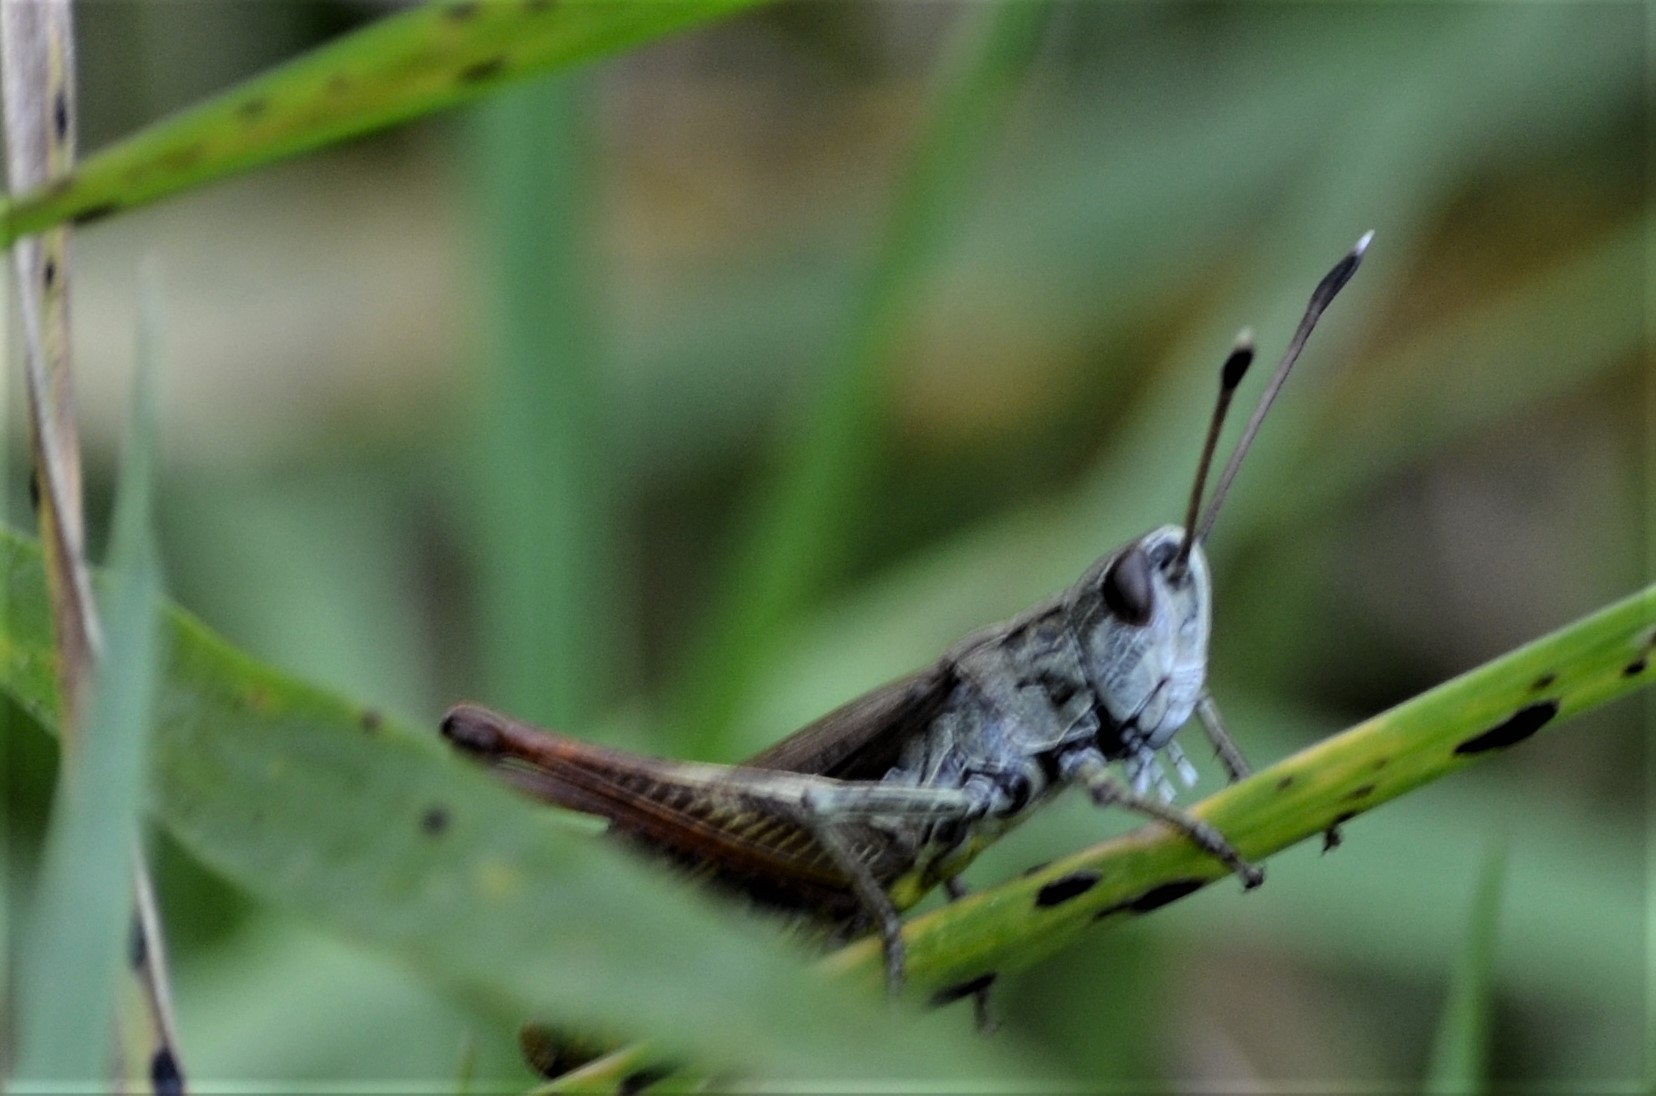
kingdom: Animalia
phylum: Arthropoda
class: Insecta
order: Orthoptera
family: Acrididae
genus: Gomphocerippus
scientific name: Gomphocerippus rufus
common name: Rufous grasshopper
